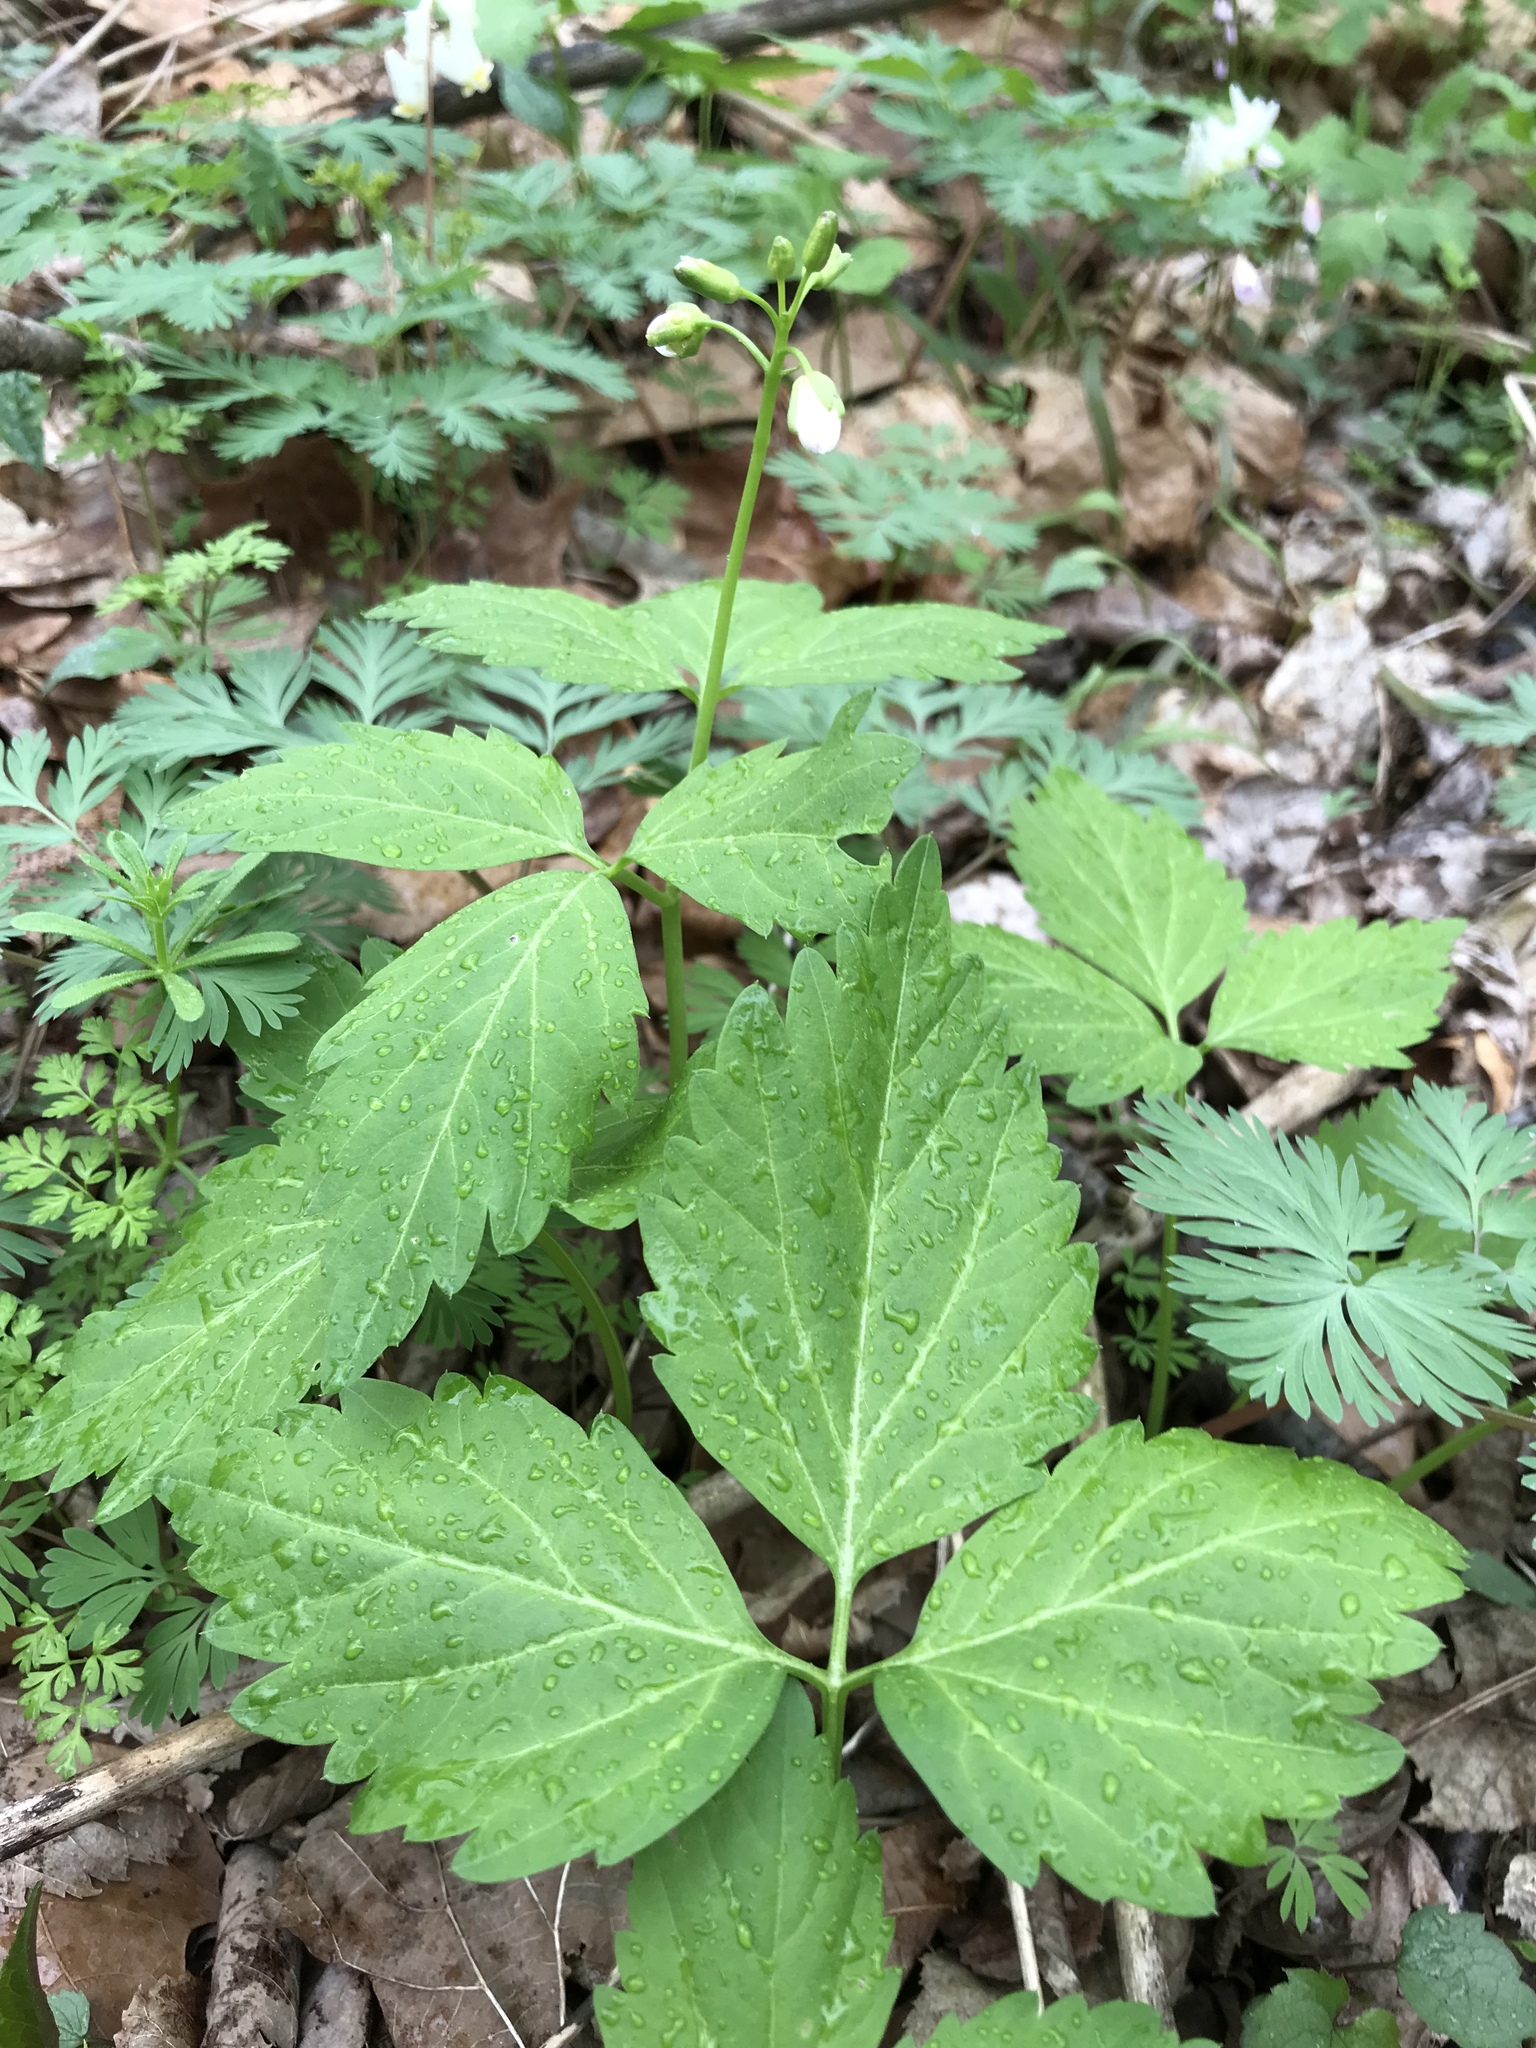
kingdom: Plantae
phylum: Tracheophyta
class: Magnoliopsida
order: Brassicales
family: Brassicaceae
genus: Cardamine
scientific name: Cardamine diphylla
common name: Broad-leaved toothwort
